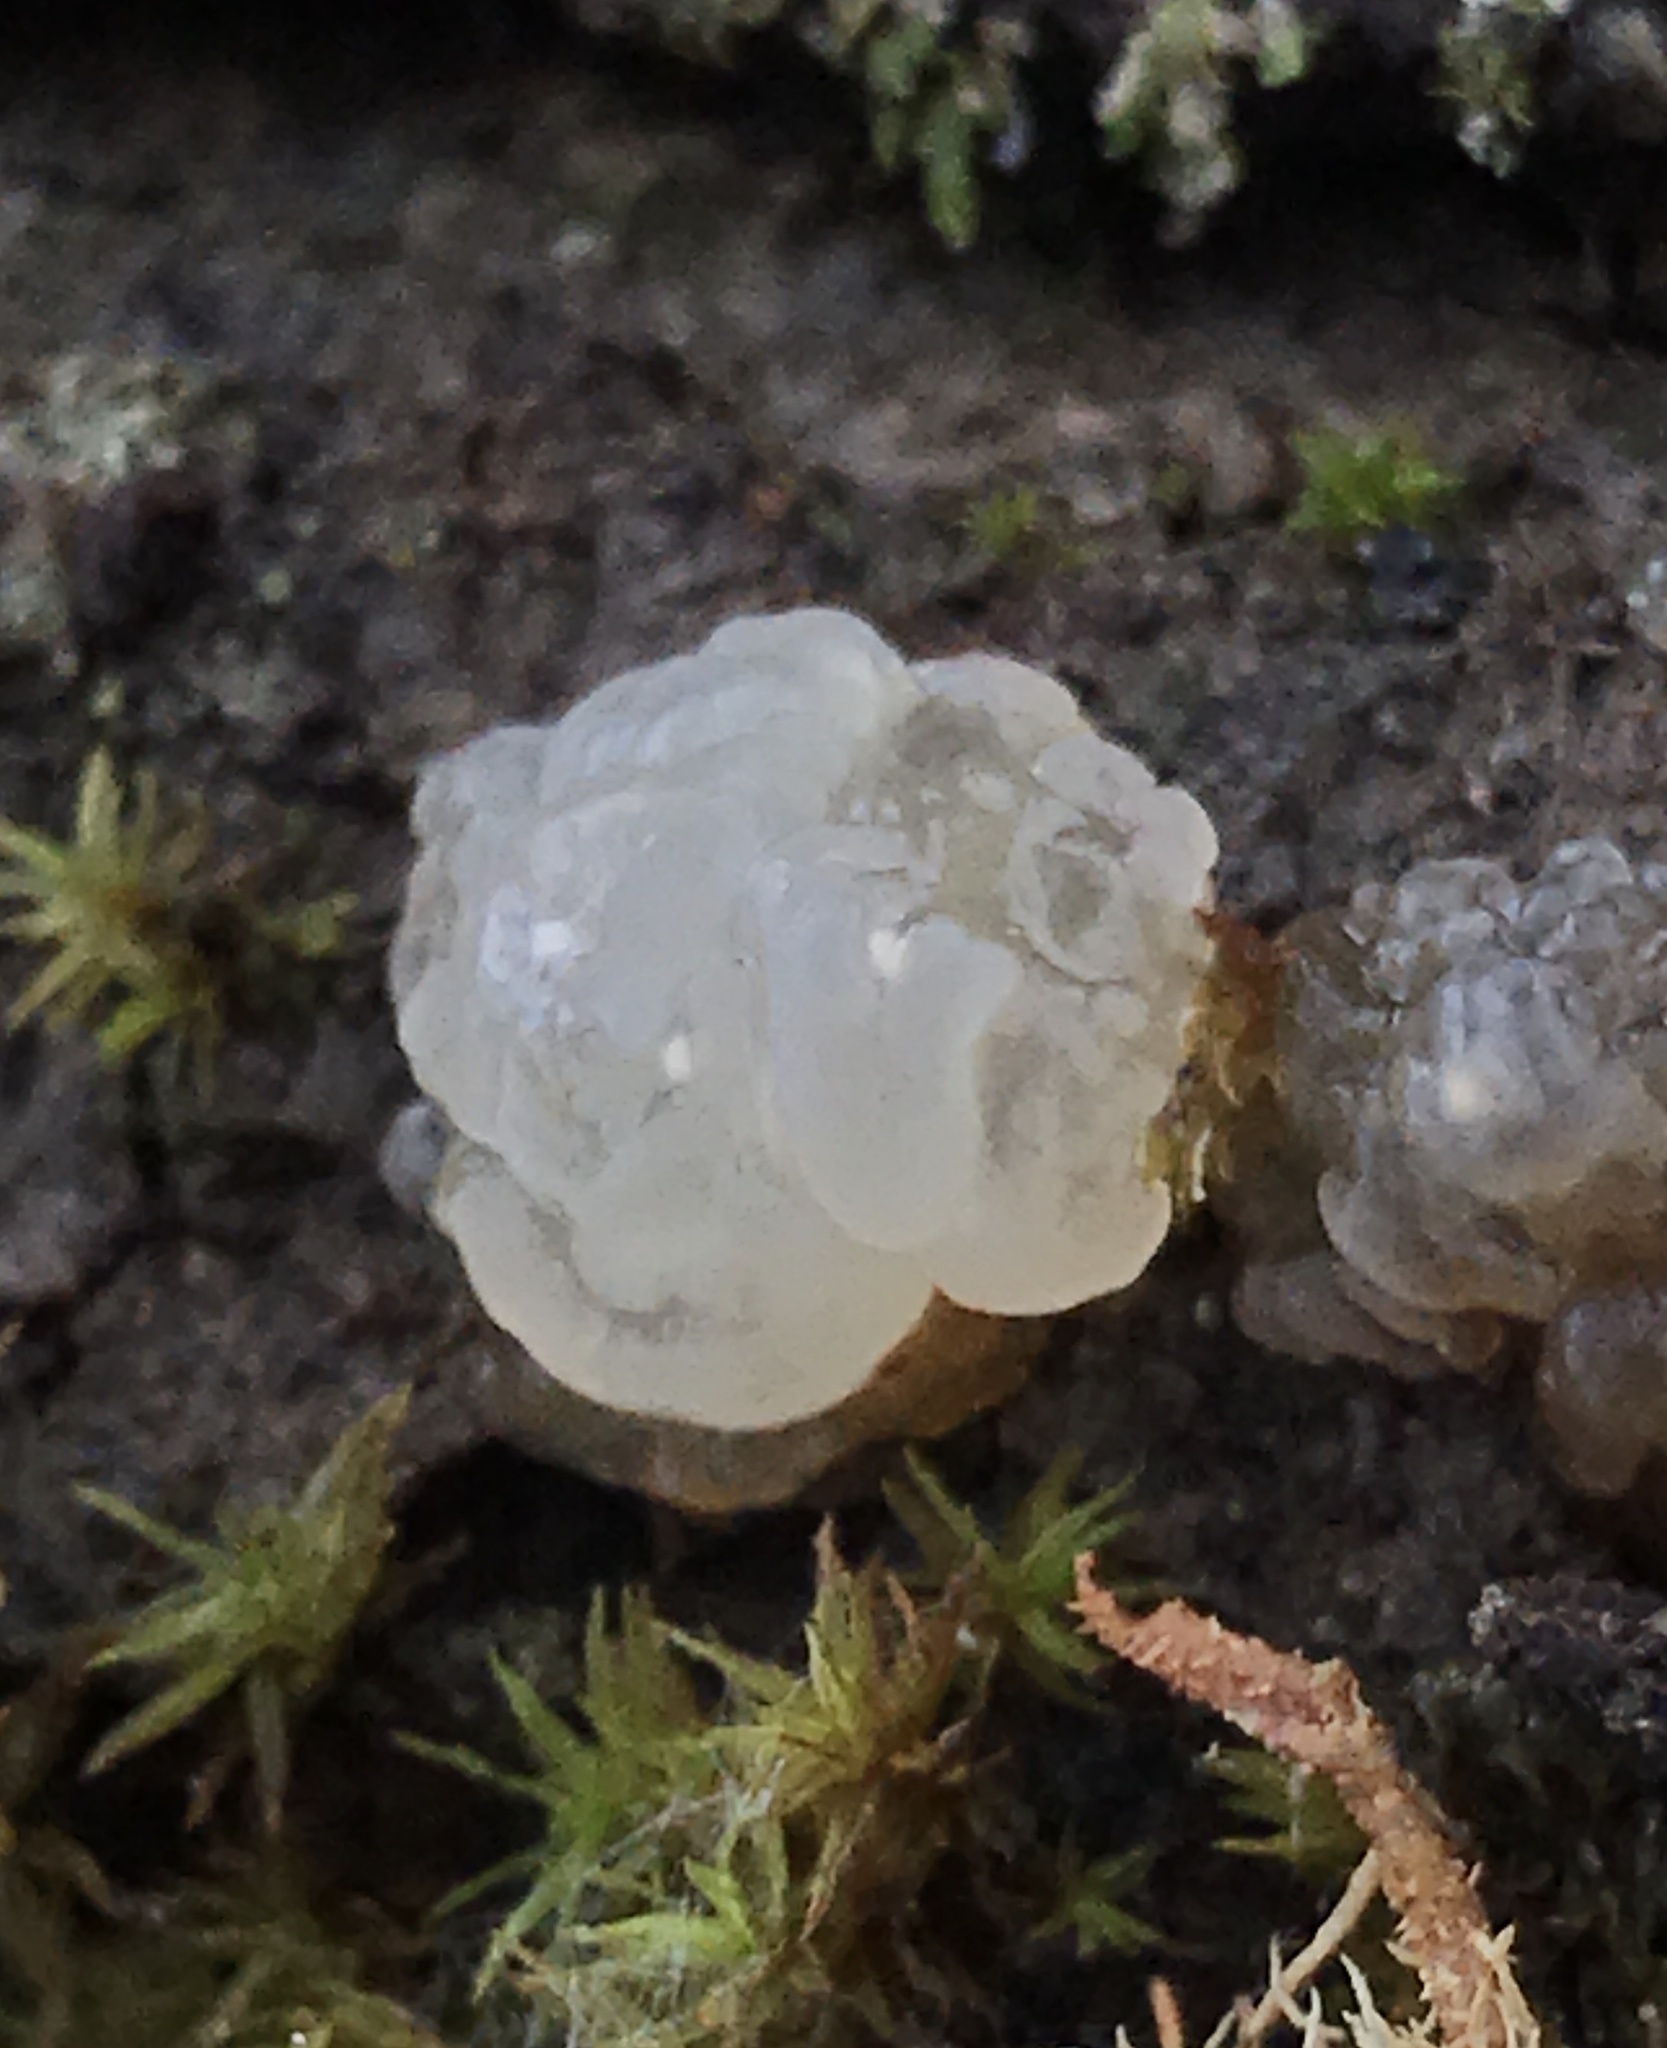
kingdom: Fungi
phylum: Basidiomycota
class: Agaricomycetes
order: Auriculariales
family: Hyaloriaceae
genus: Myxarium
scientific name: Myxarium nucleatum
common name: Crystal brain fungus
